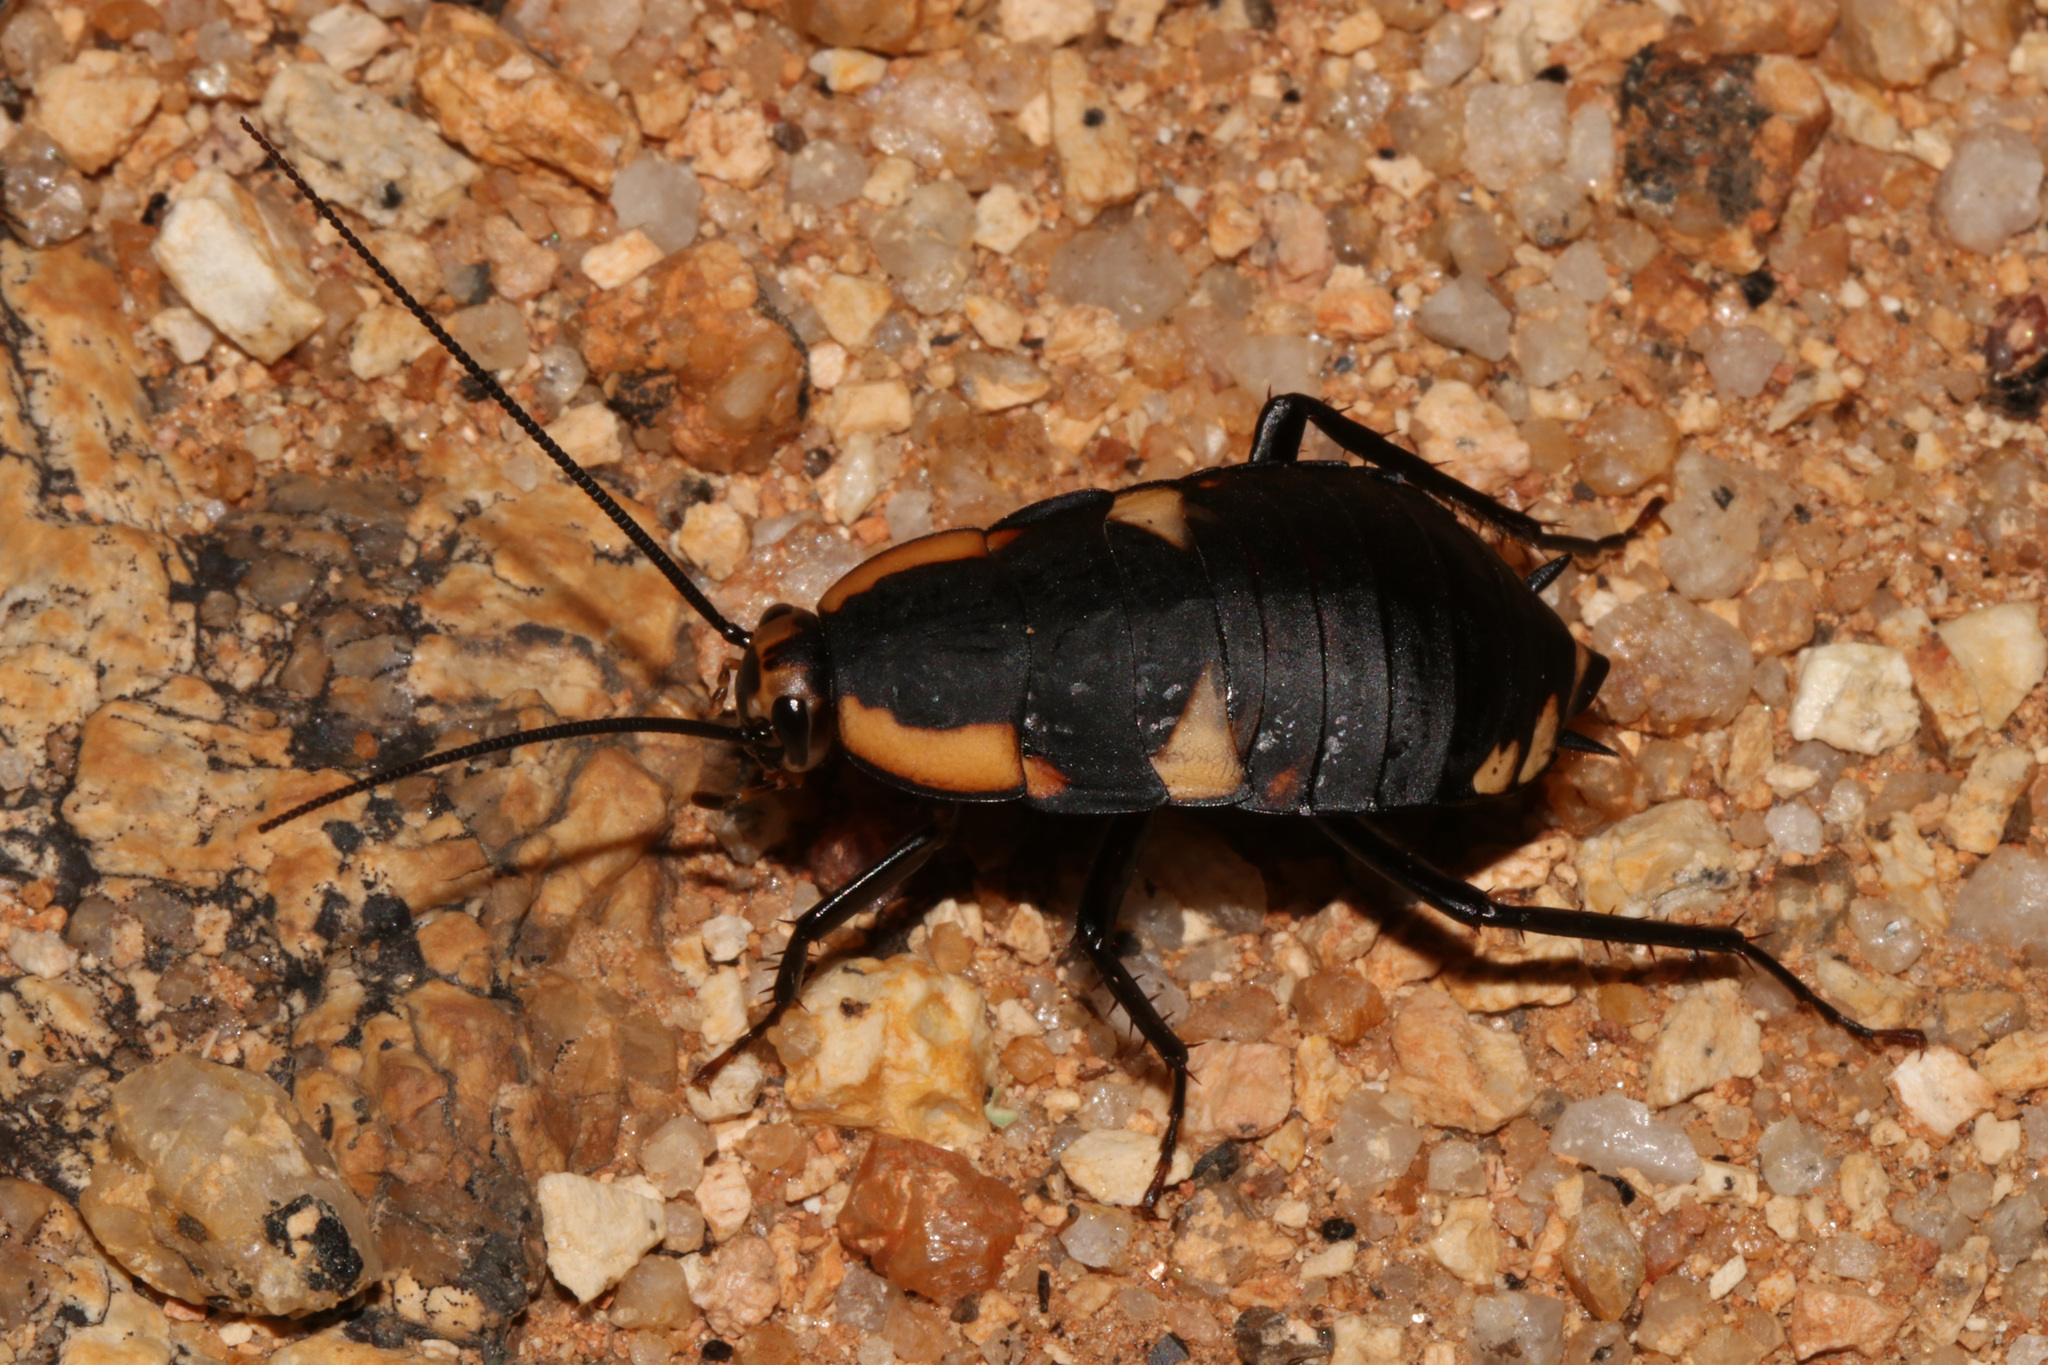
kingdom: Animalia
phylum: Arthropoda
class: Insecta
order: Blattodea
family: Blattidae
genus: Deropeltis
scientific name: Deropeltis paulinoi
